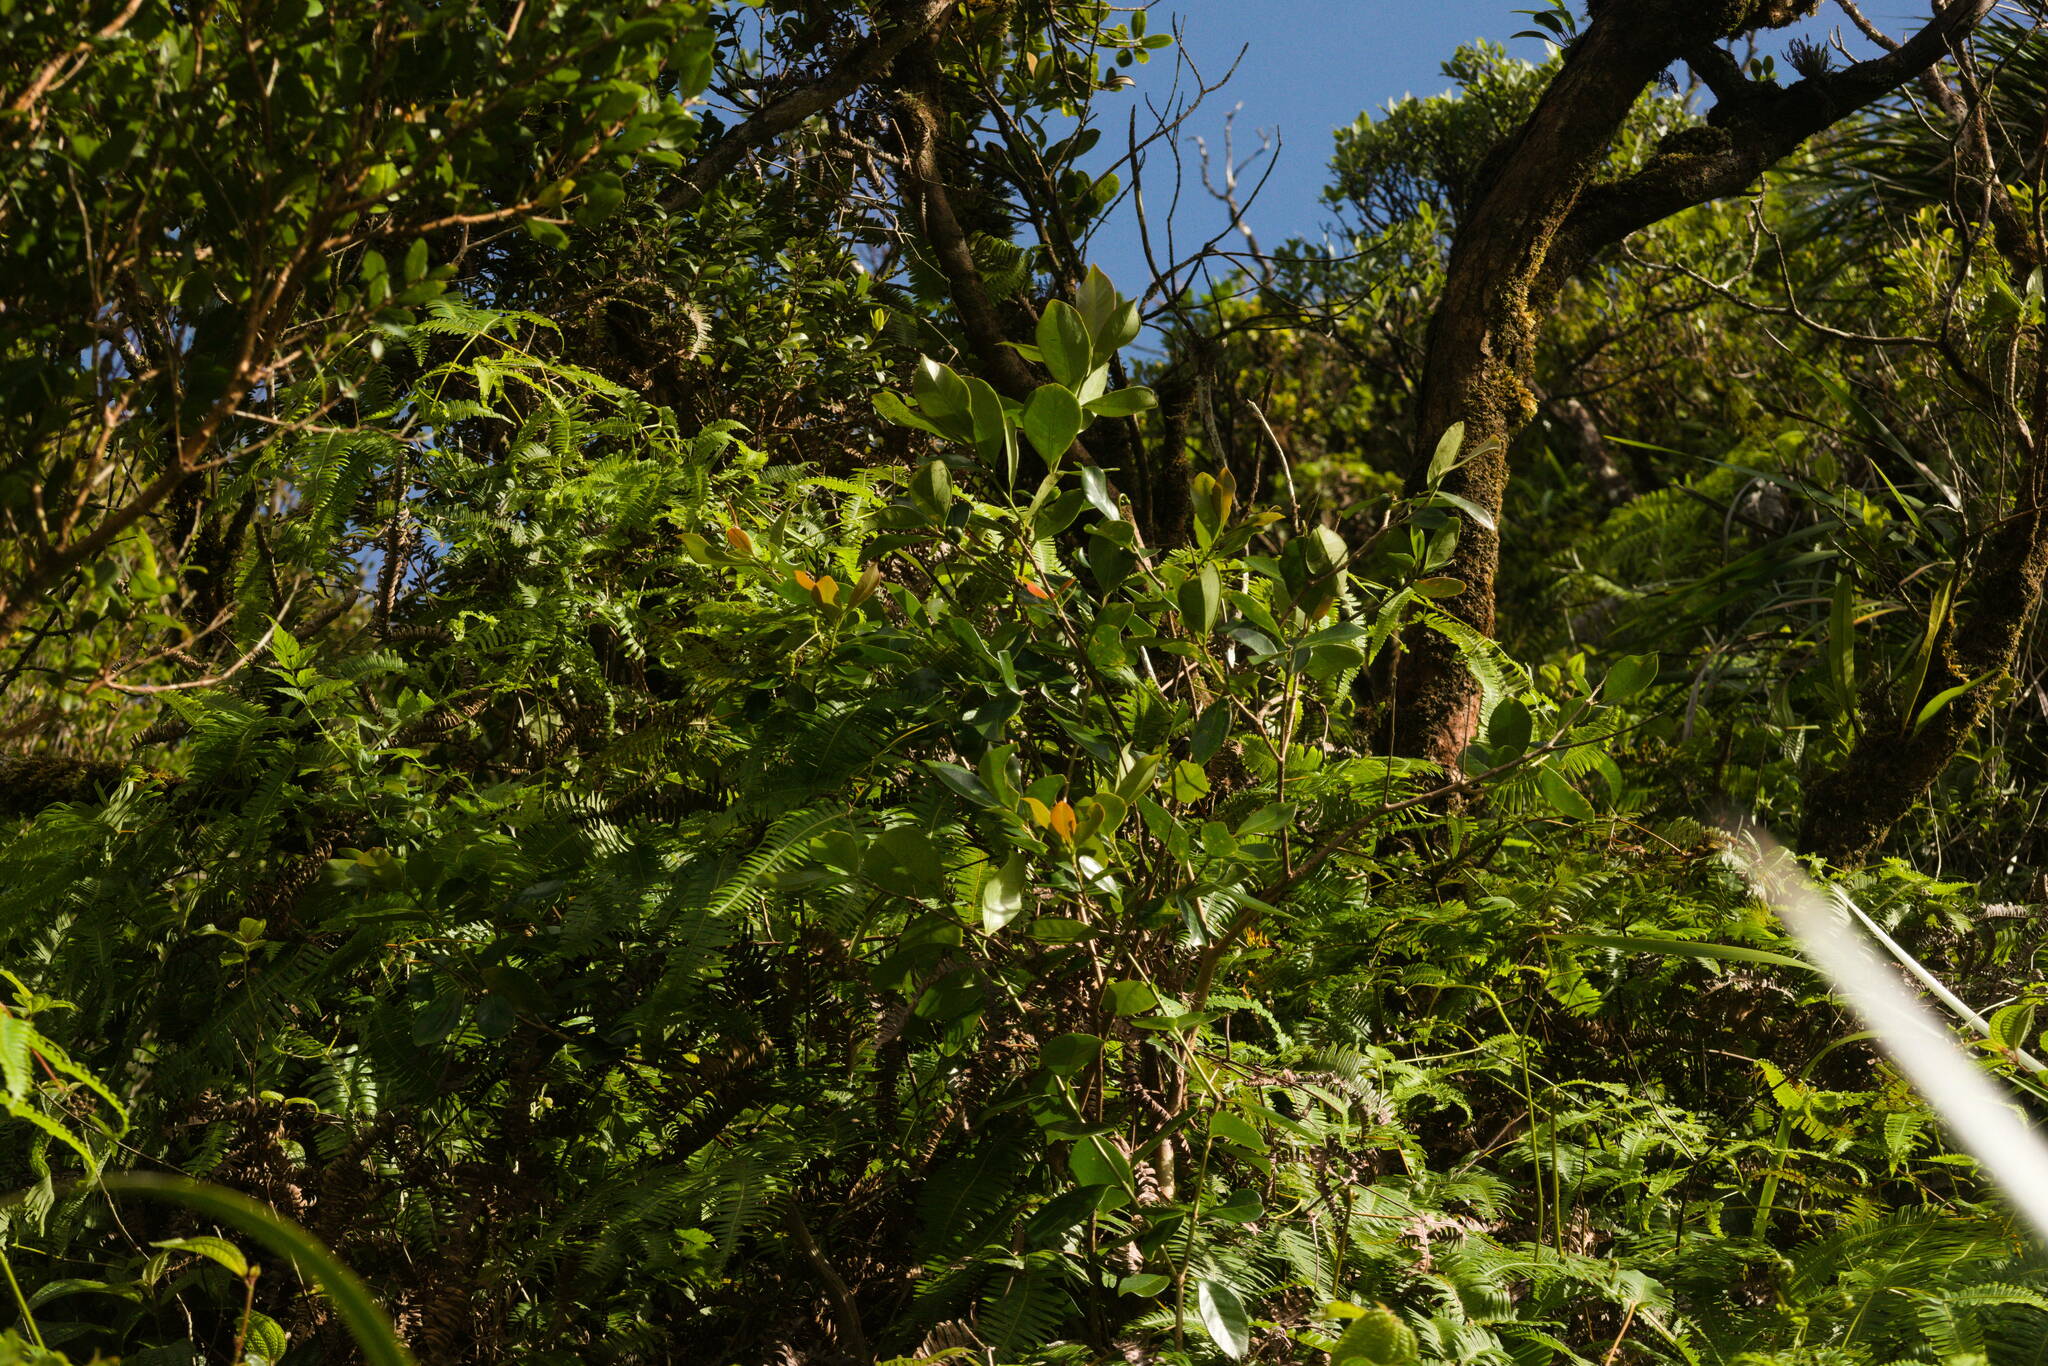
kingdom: Plantae
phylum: Tracheophyta
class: Magnoliopsida
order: Myrtales
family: Myrtaceae
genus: Psidium
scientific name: Psidium cattleianum
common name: Strawberry guava
